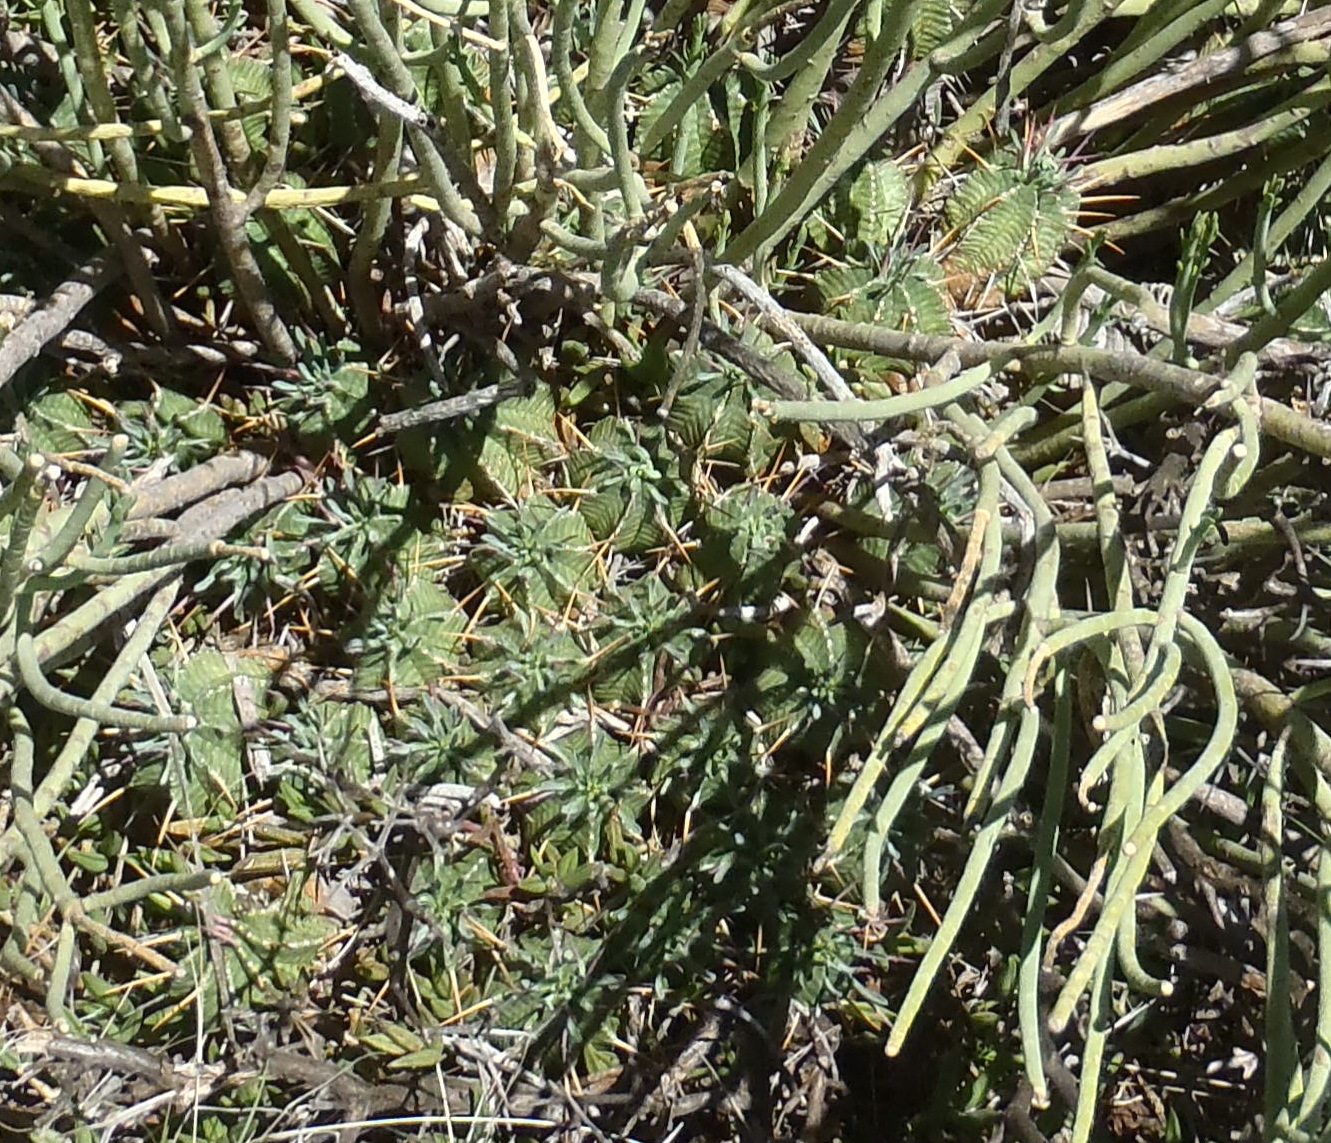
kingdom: Plantae
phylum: Tracheophyta
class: Magnoliopsida
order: Malpighiales
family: Euphorbiaceae
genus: Euphorbia
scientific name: Euphorbia pulvinata
